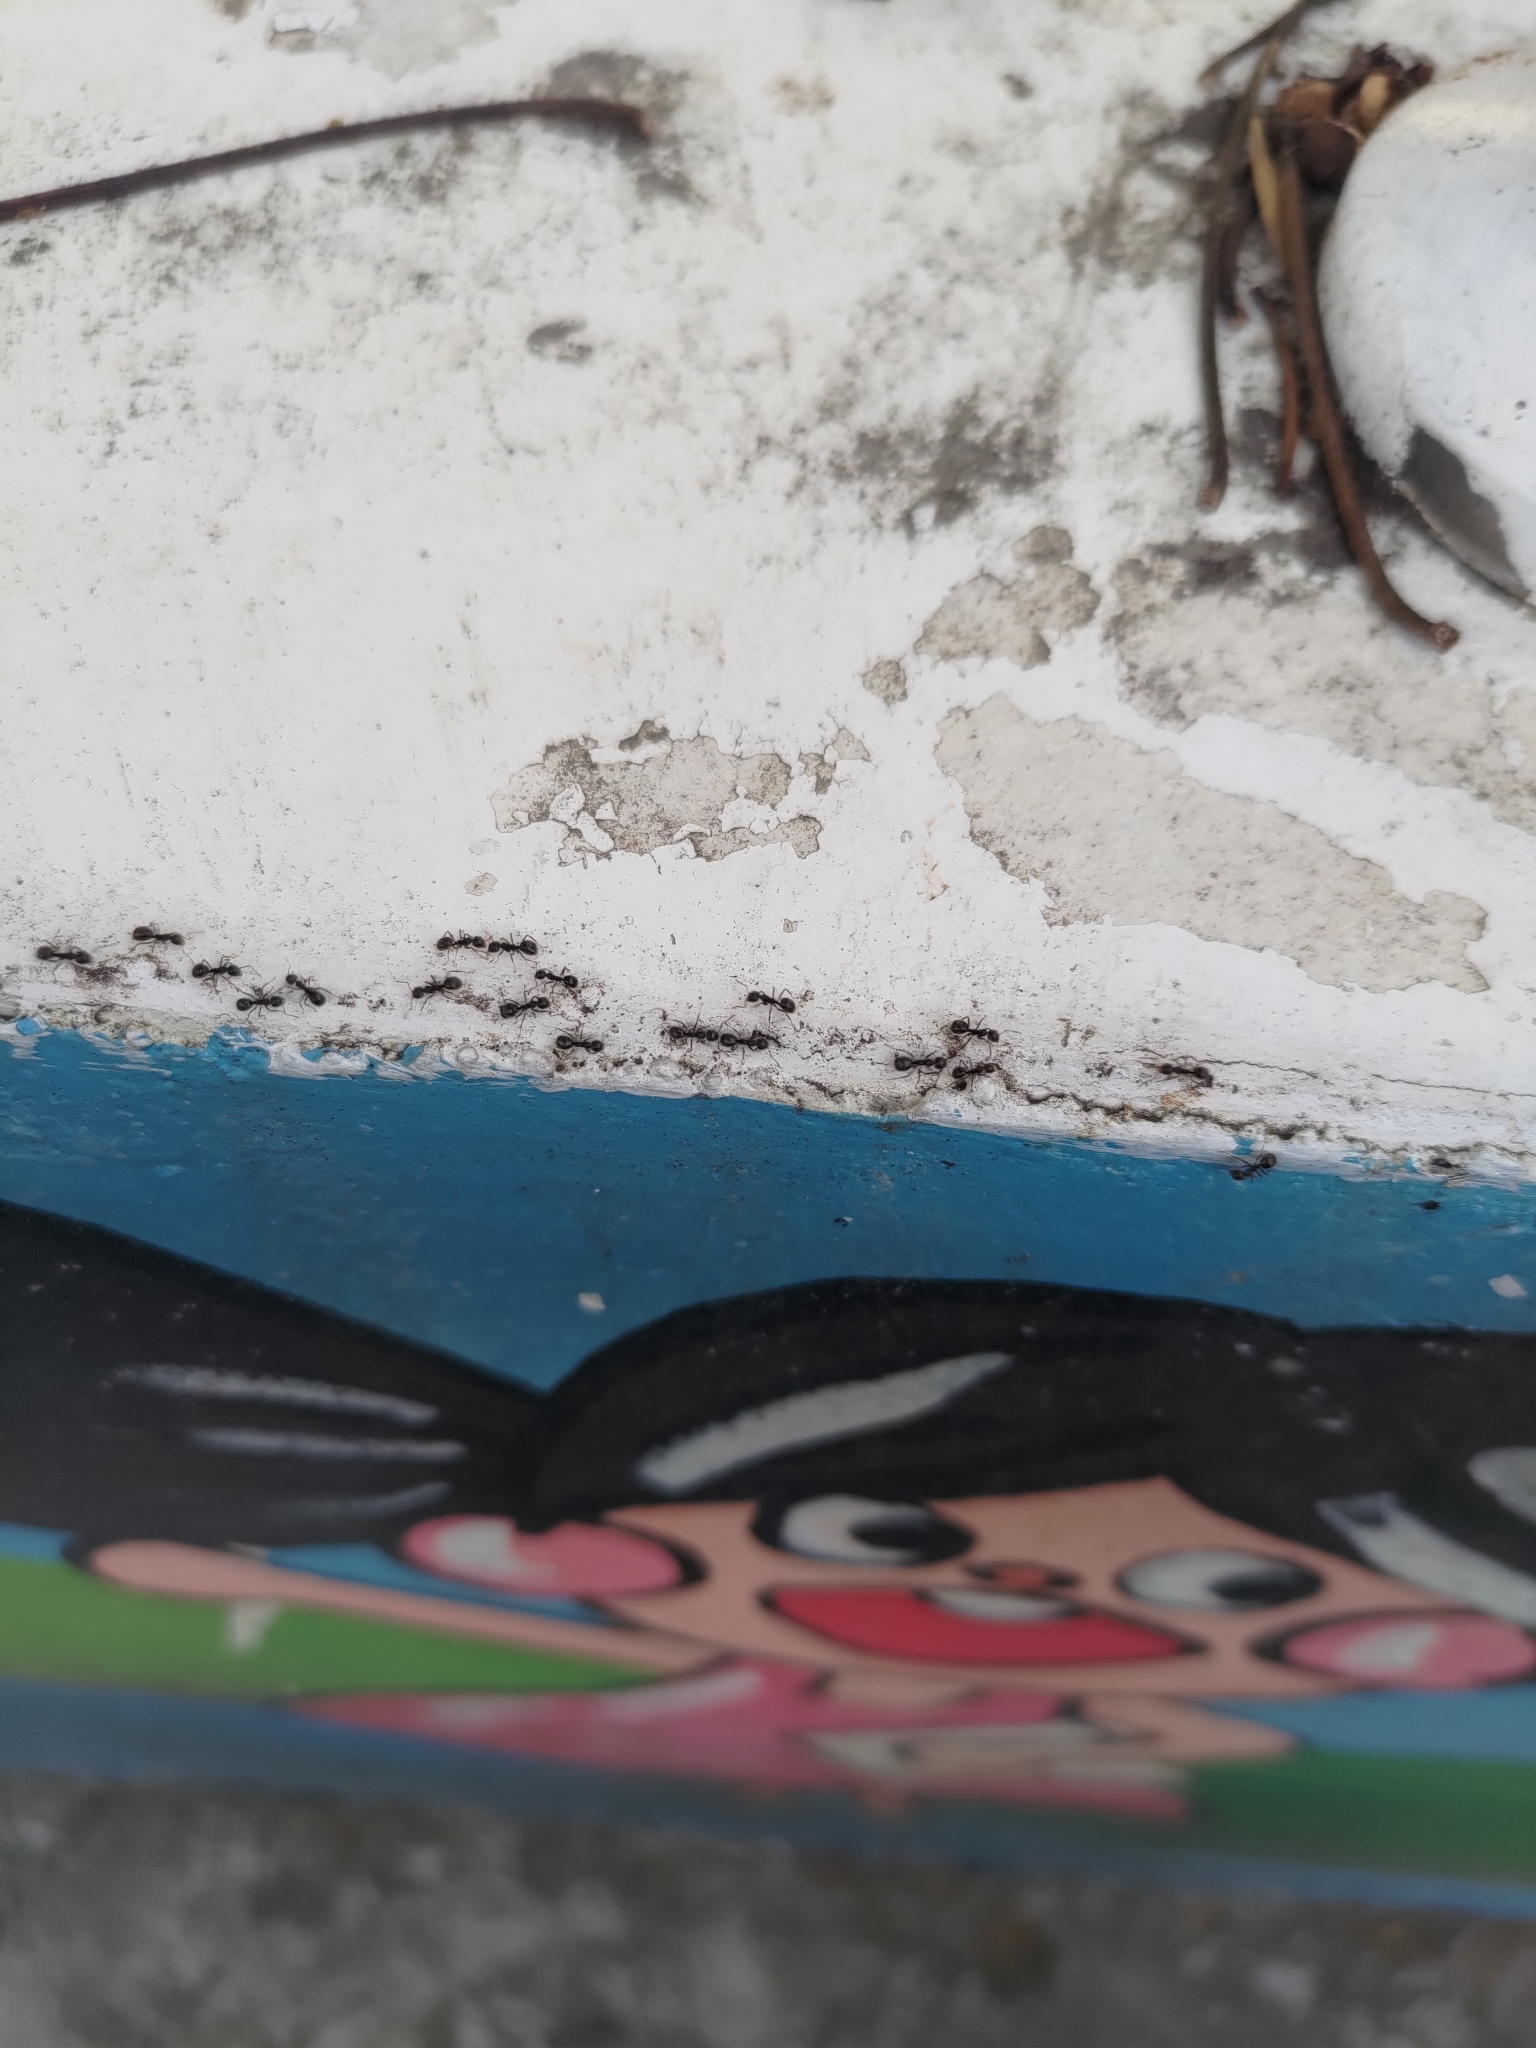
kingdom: Animalia
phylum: Arthropoda
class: Insecta
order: Hymenoptera
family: Formicidae
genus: Dolichoderus
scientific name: Dolichoderus thoracicus
